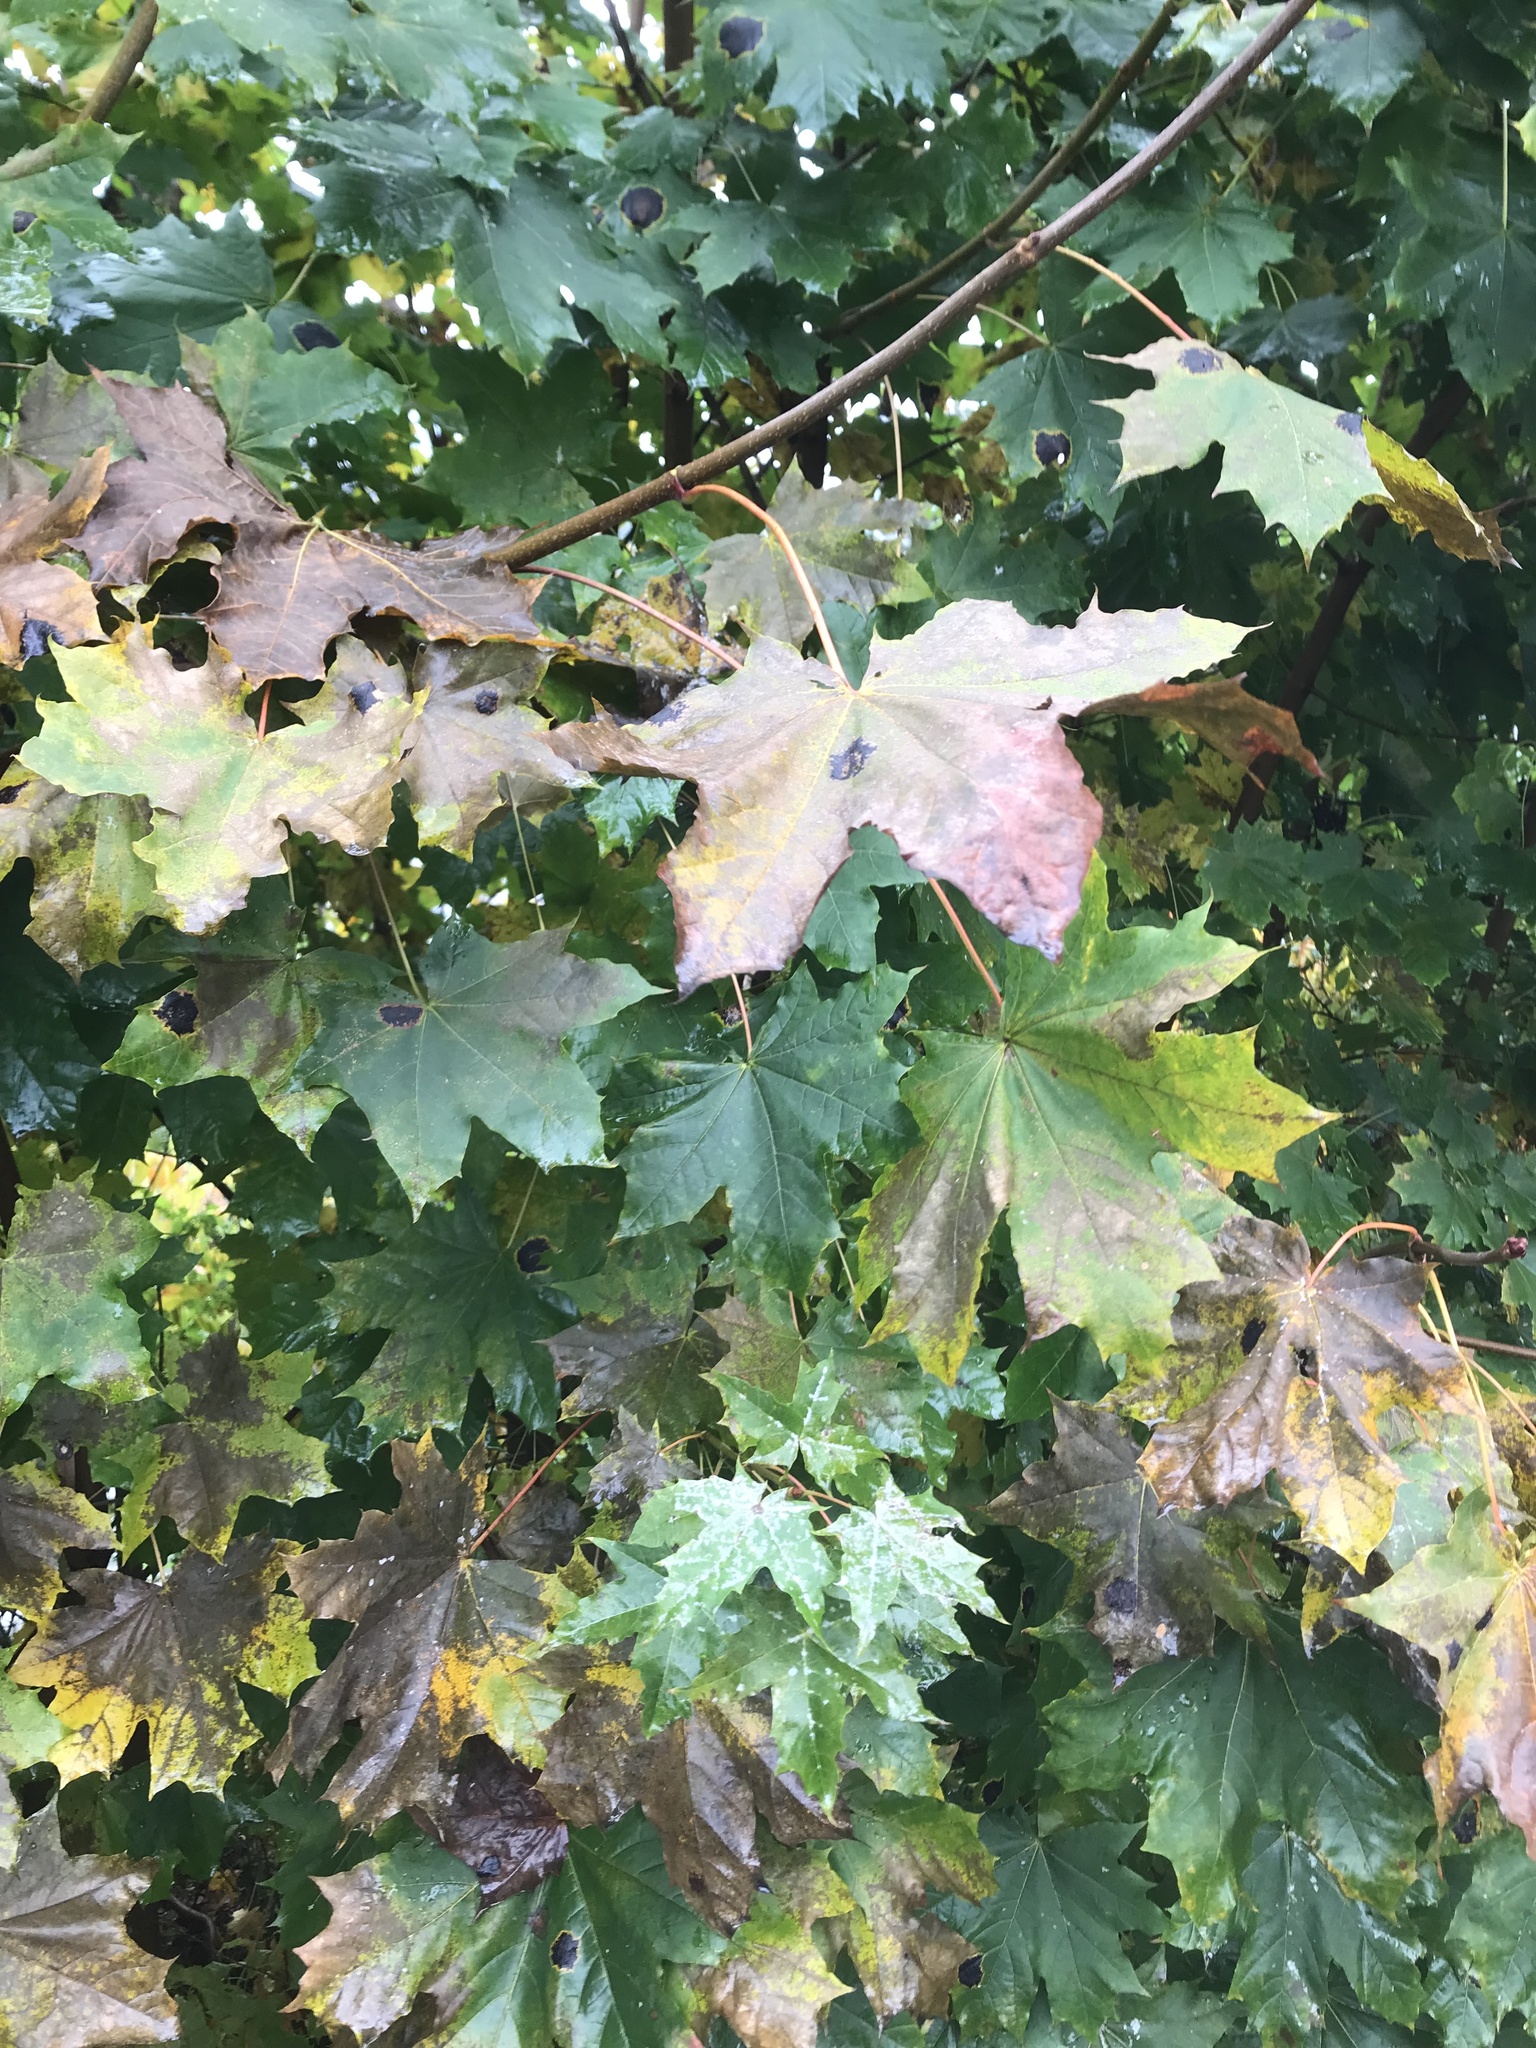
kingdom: Plantae
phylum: Tracheophyta
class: Magnoliopsida
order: Sapindales
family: Sapindaceae
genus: Acer
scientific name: Acer platanoides
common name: Norway maple
